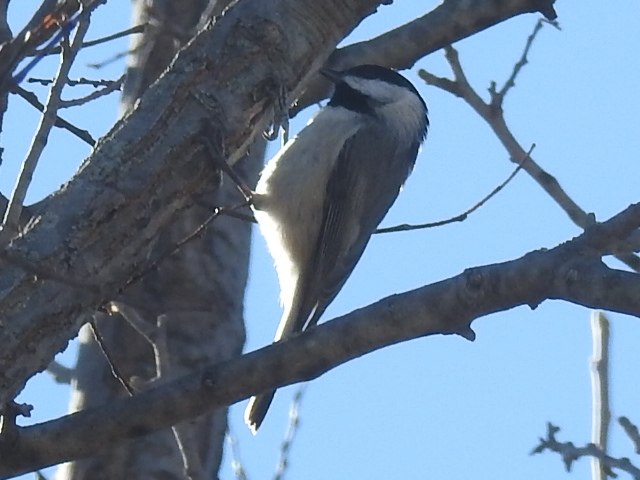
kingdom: Animalia
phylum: Chordata
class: Aves
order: Passeriformes
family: Paridae
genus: Poecile
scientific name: Poecile carolinensis
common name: Carolina chickadee
